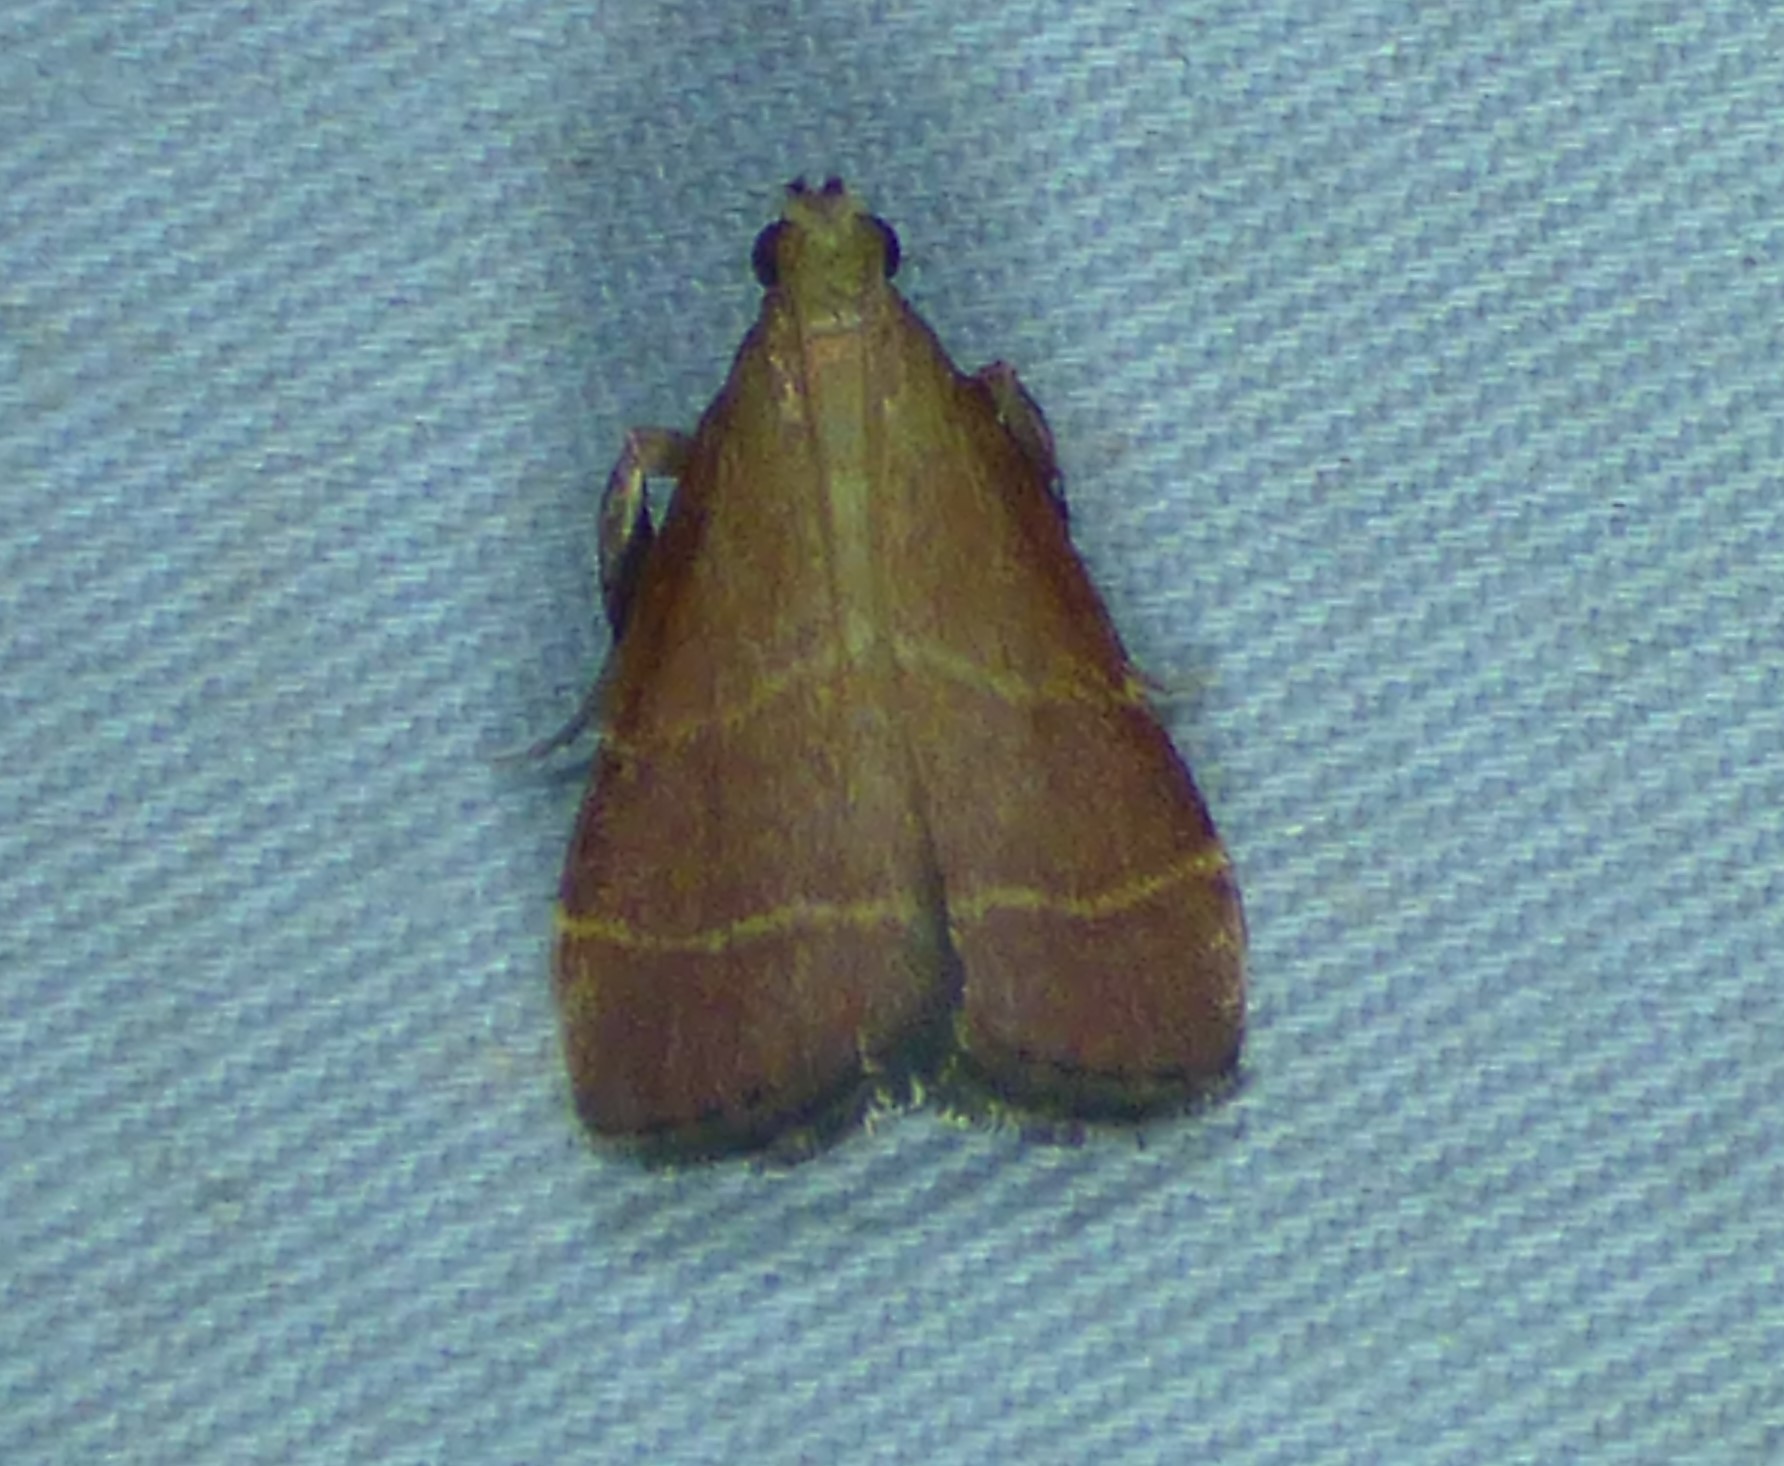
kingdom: Animalia
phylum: Arthropoda
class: Insecta
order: Lepidoptera
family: Pyralidae
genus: Arta
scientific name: Arta statalis
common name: Posturing arta moth
